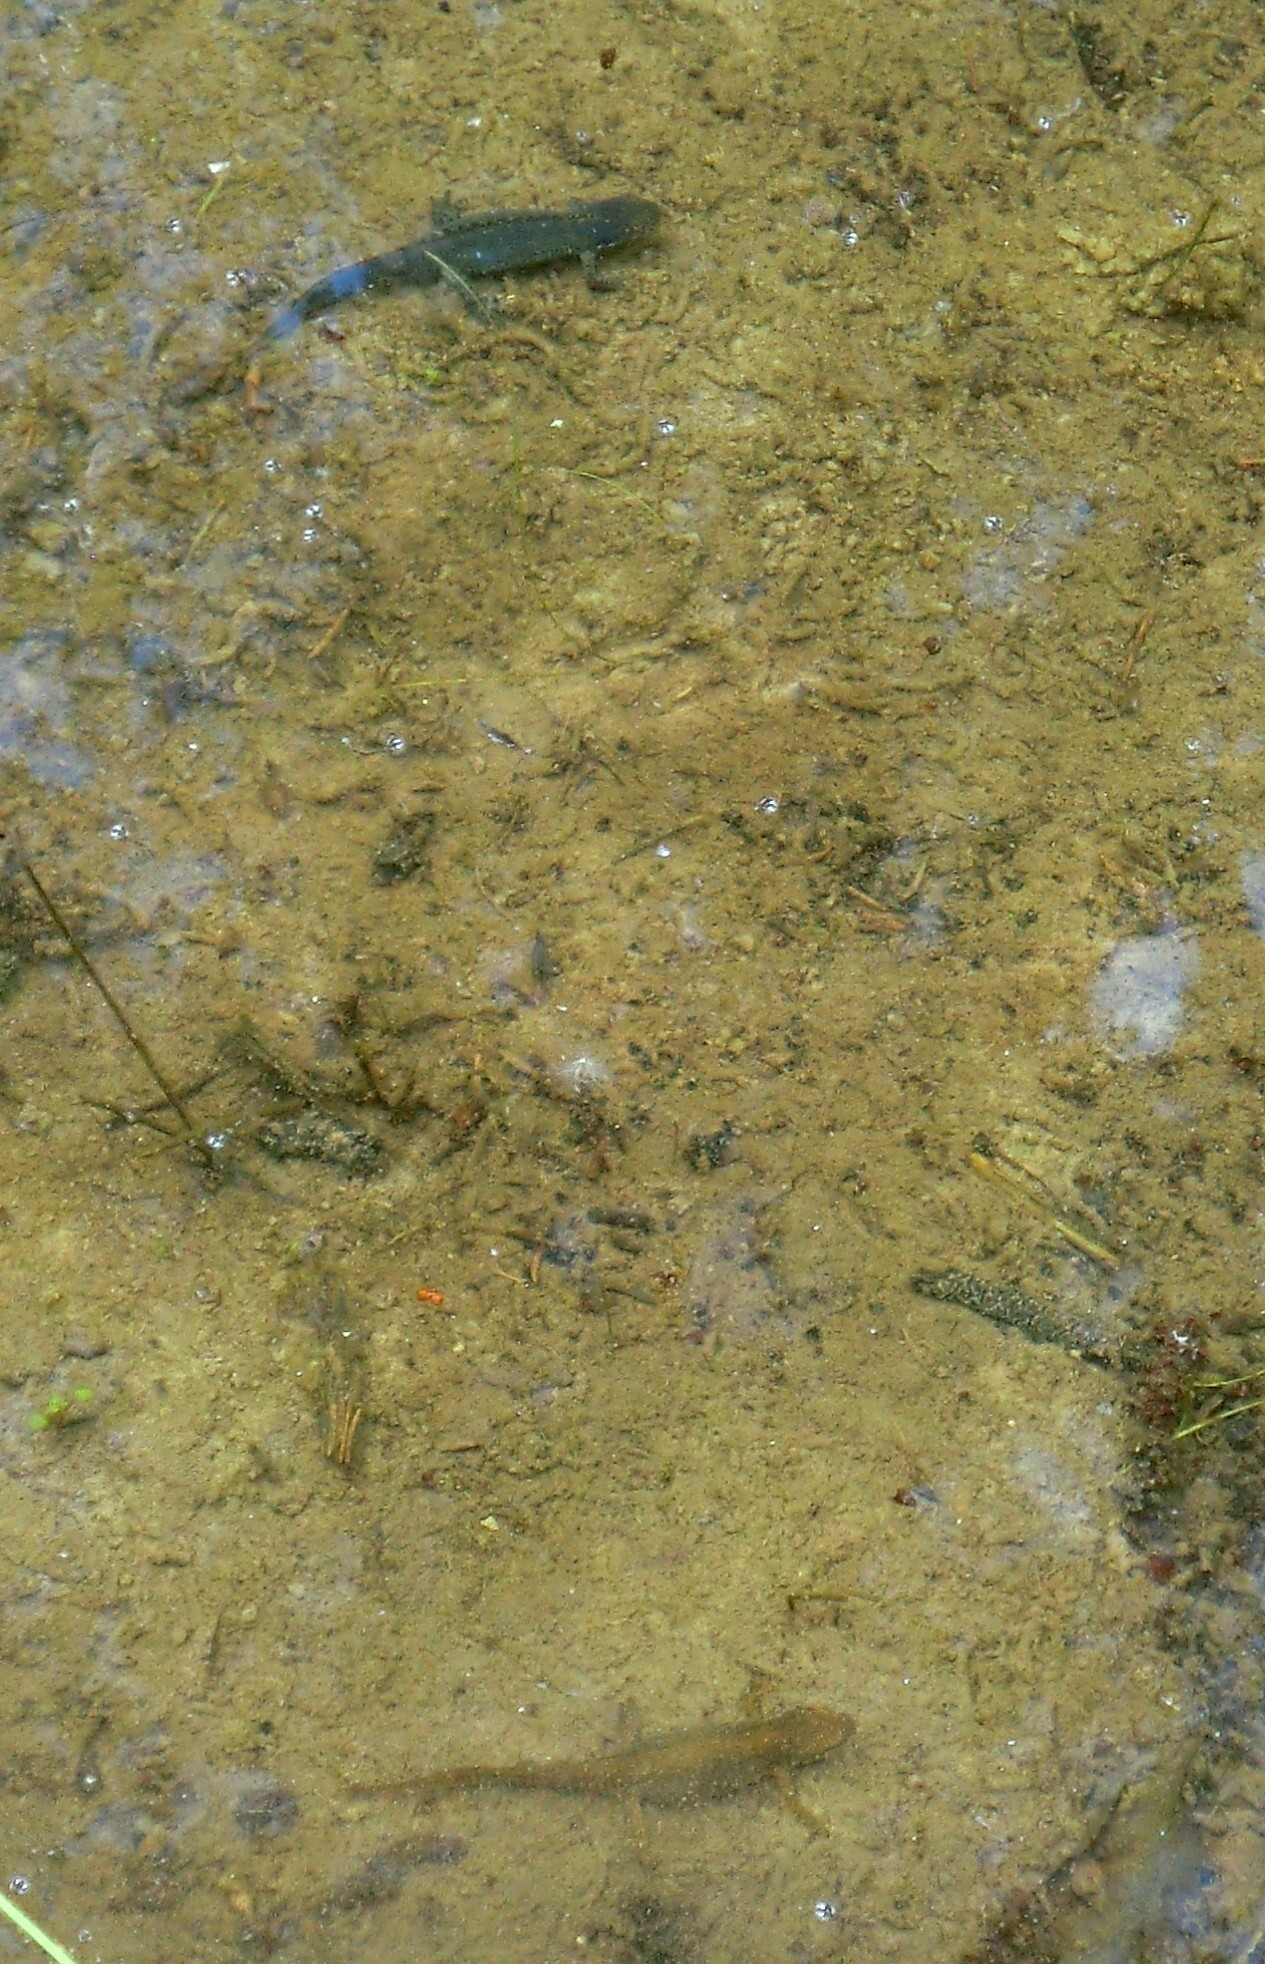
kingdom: Animalia
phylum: Chordata
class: Amphibia
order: Caudata
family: Salamandridae
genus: Ichthyosaura
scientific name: Ichthyosaura alpestris
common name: Alpine newt
